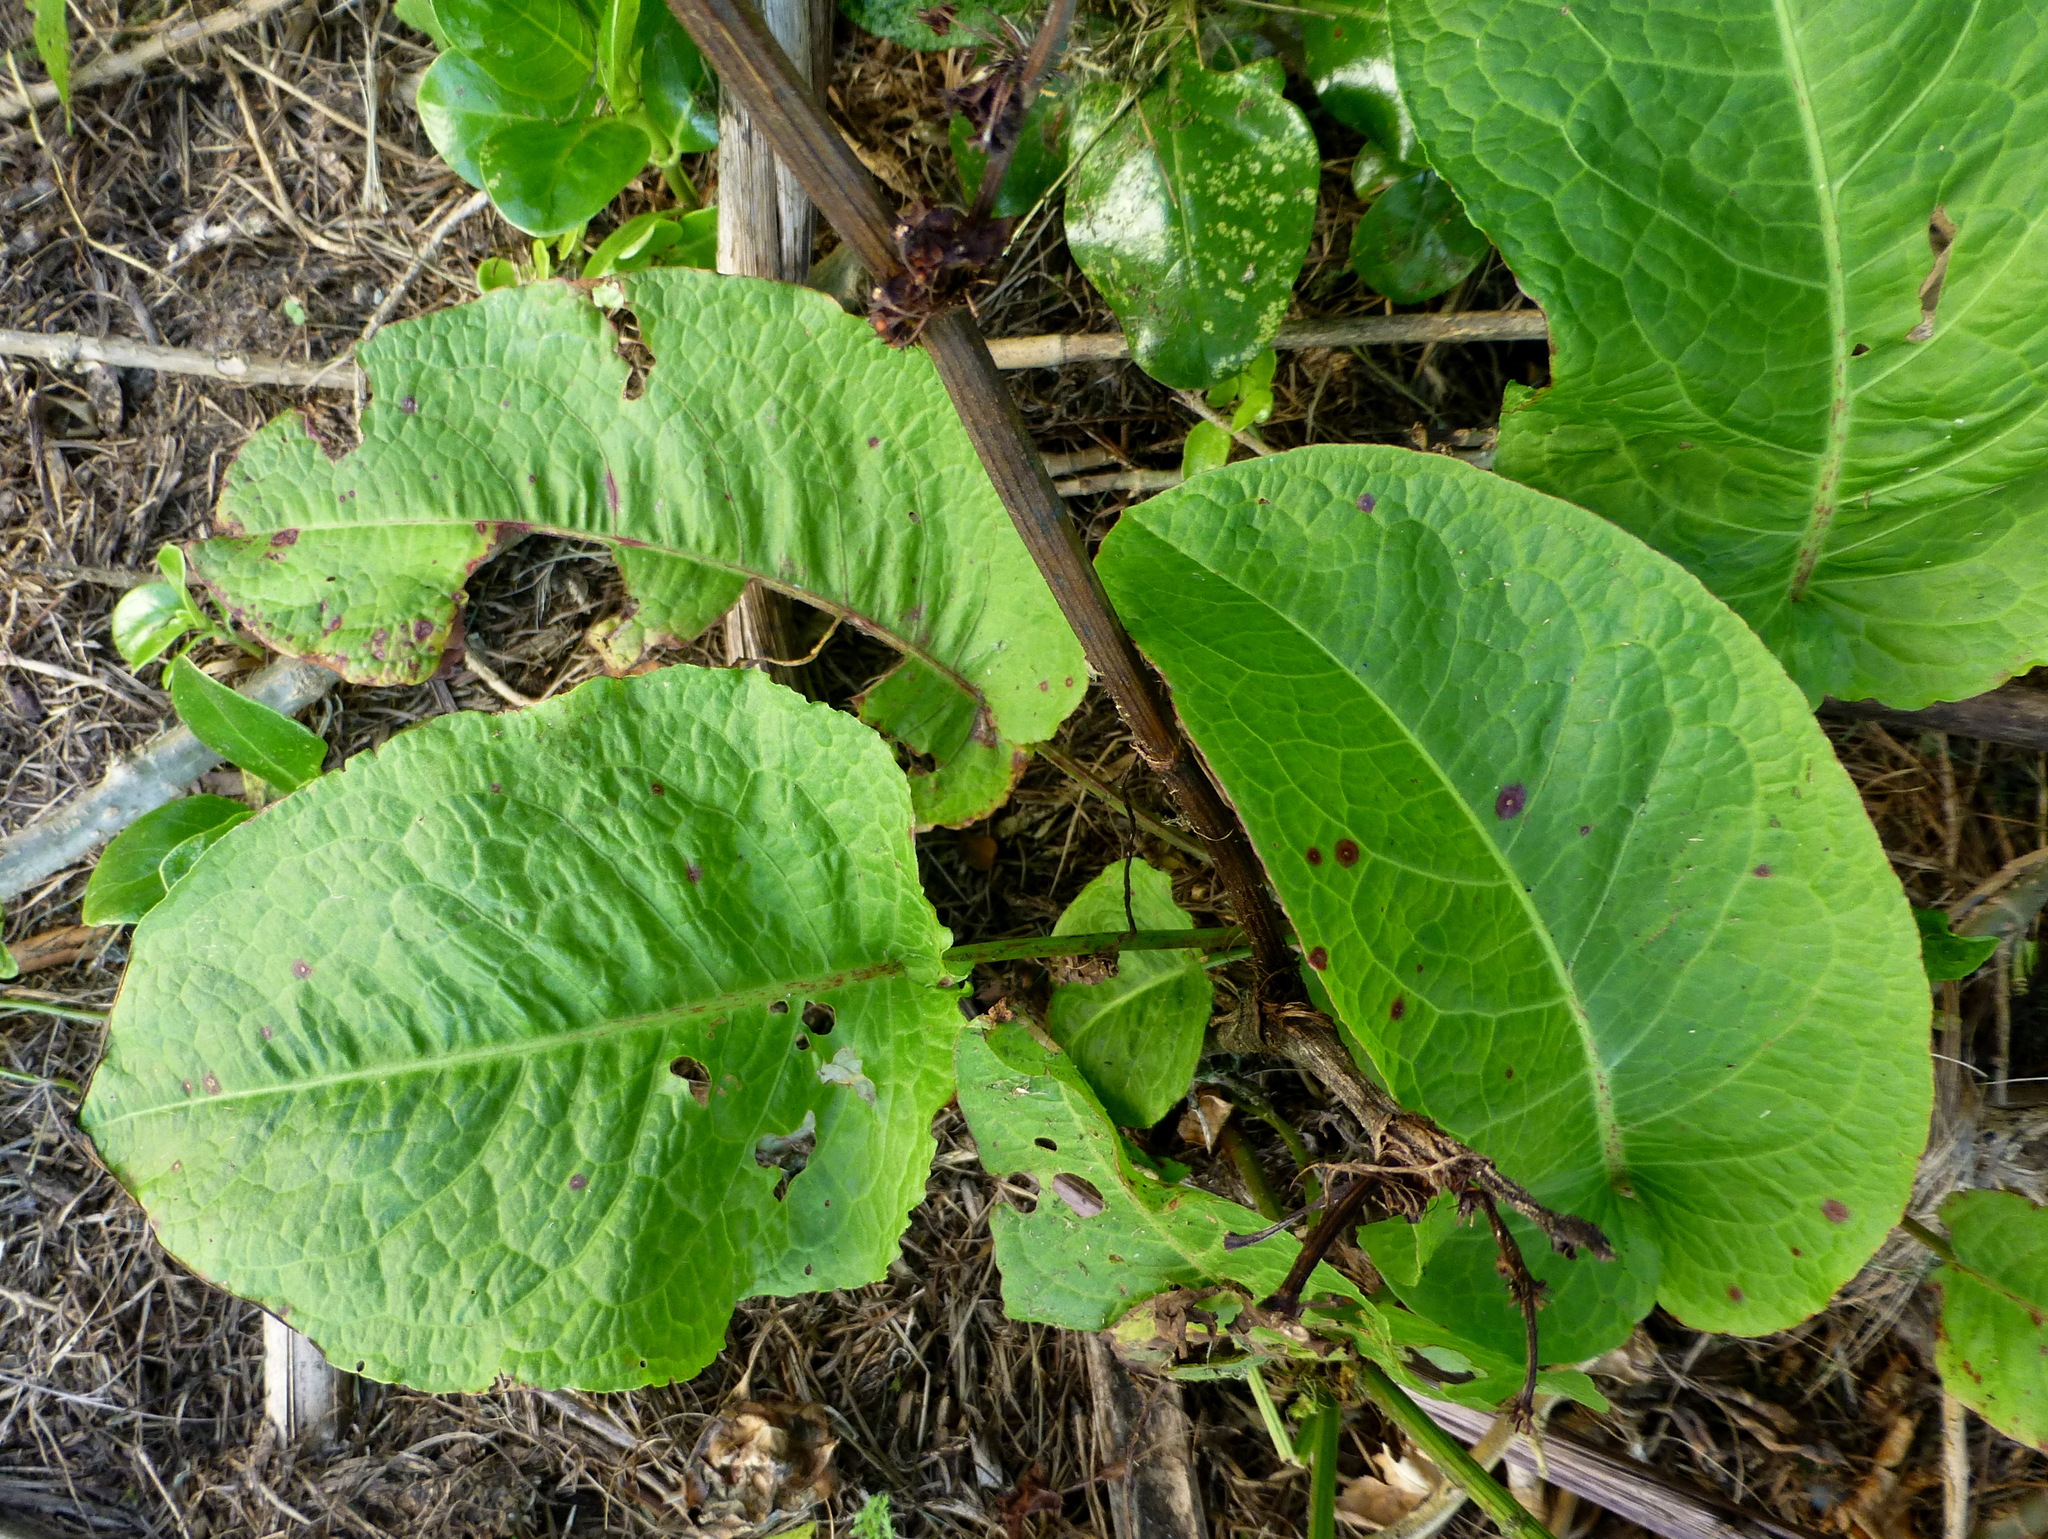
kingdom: Plantae
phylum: Tracheophyta
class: Magnoliopsida
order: Caryophyllales
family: Polygonaceae
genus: Rumex
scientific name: Rumex obtusifolius
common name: Bitter dock
